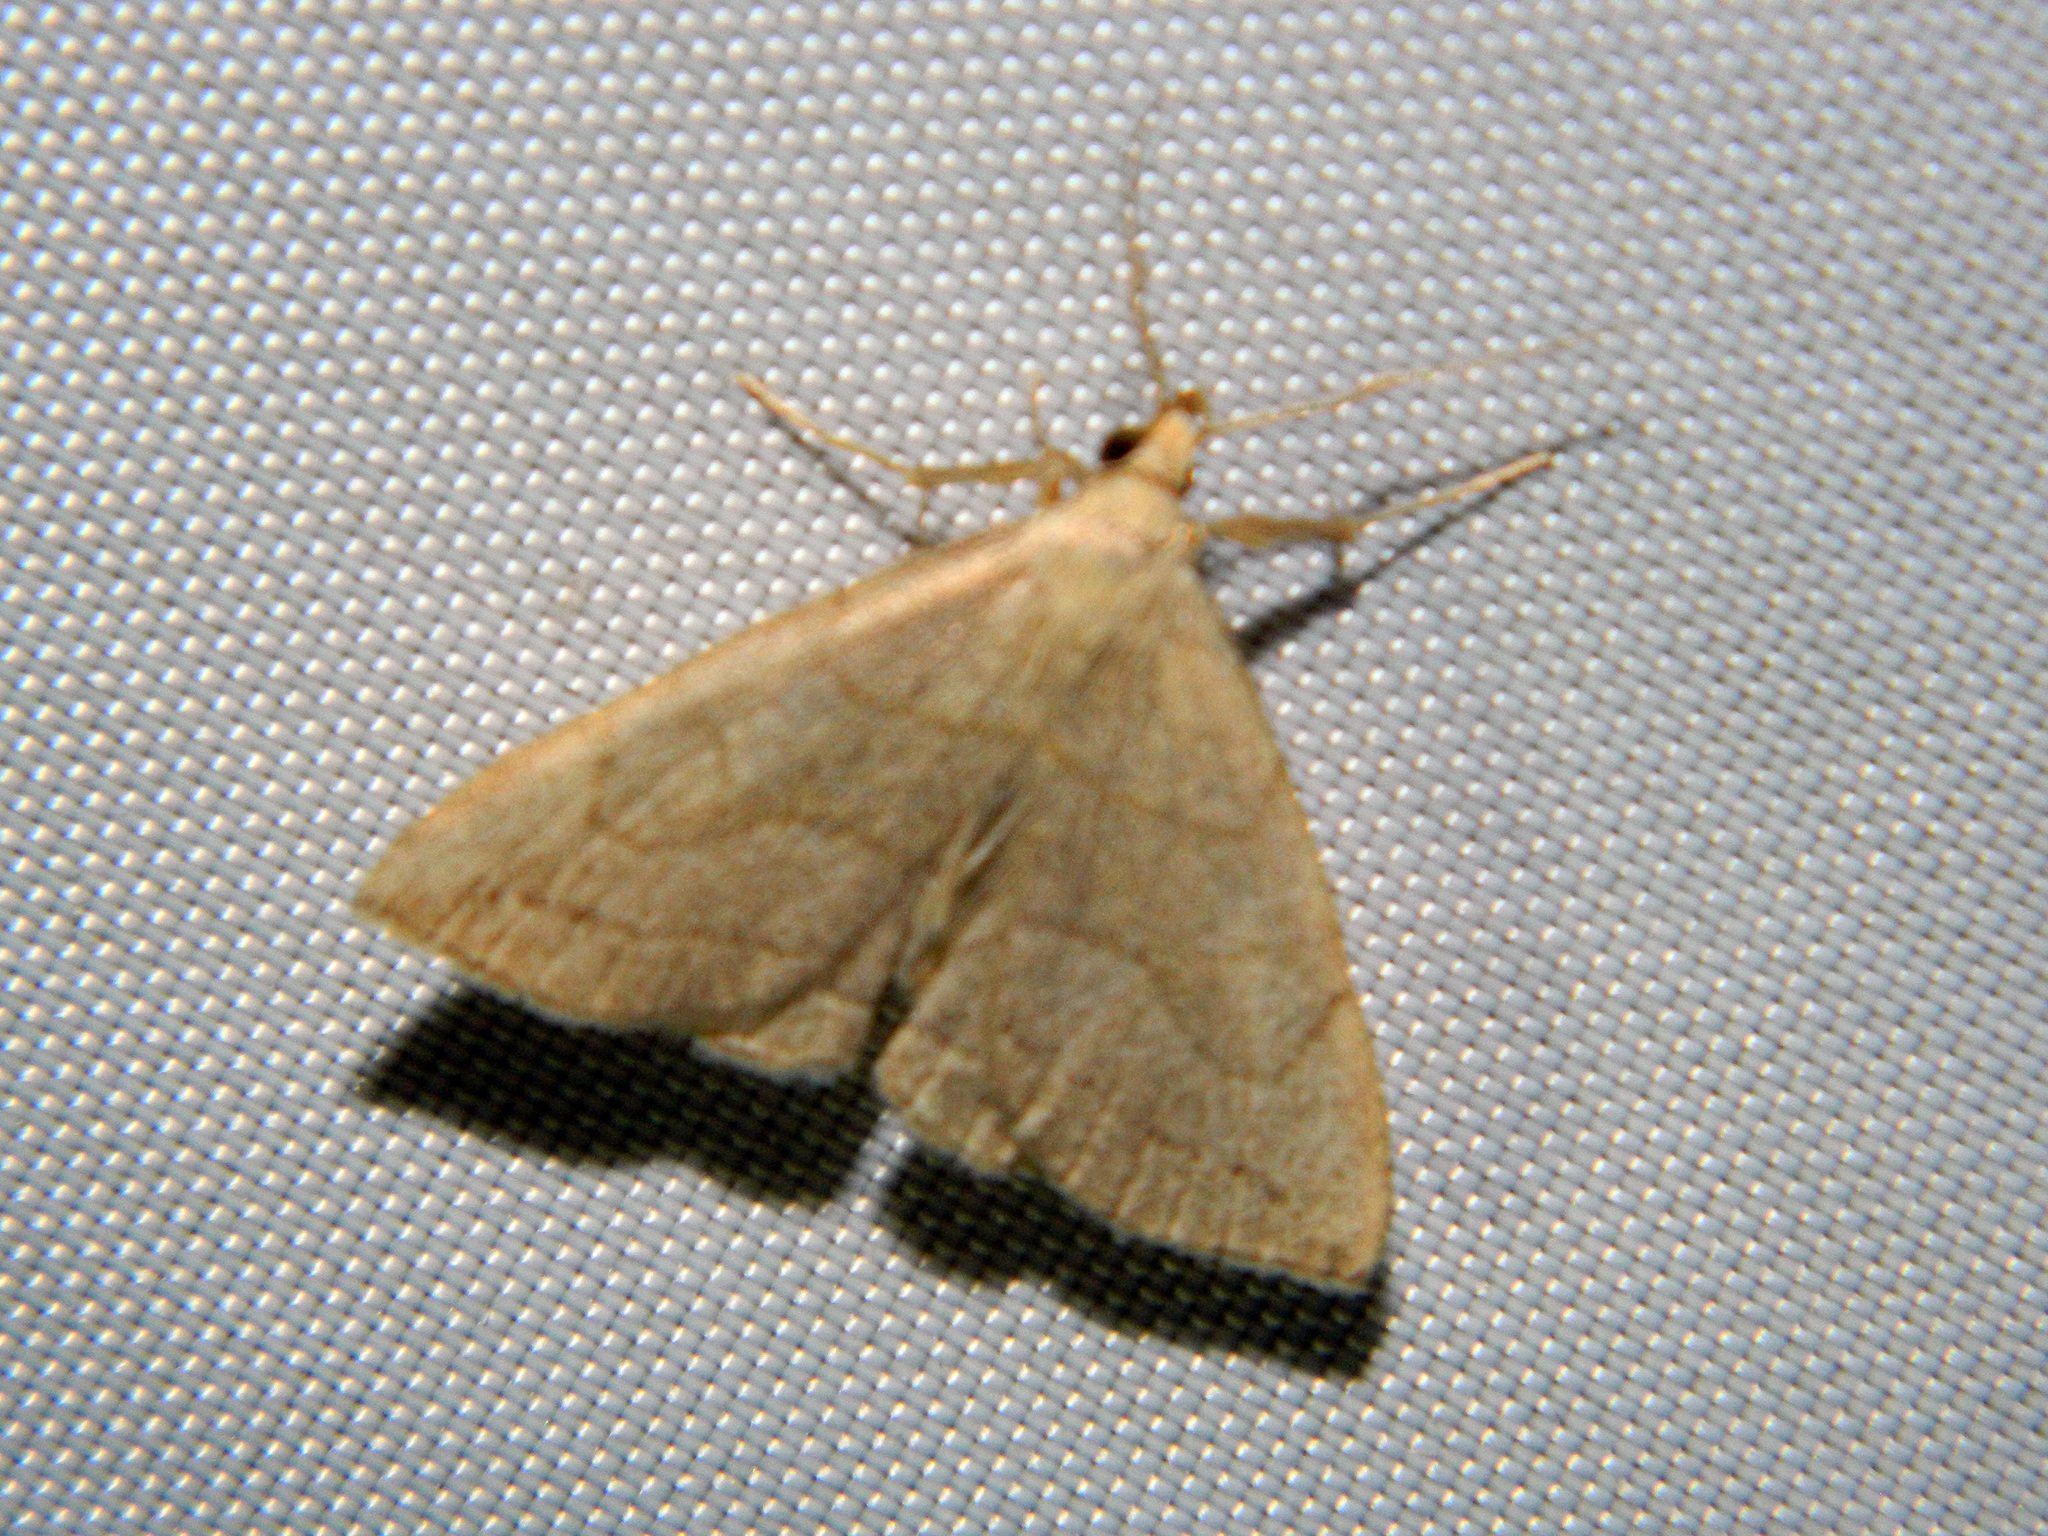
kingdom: Animalia
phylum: Arthropoda
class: Insecta
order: Lepidoptera
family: Erebidae
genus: Zanclognatha
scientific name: Zanclognatha pedipilalis
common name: Grayish fan-foot
